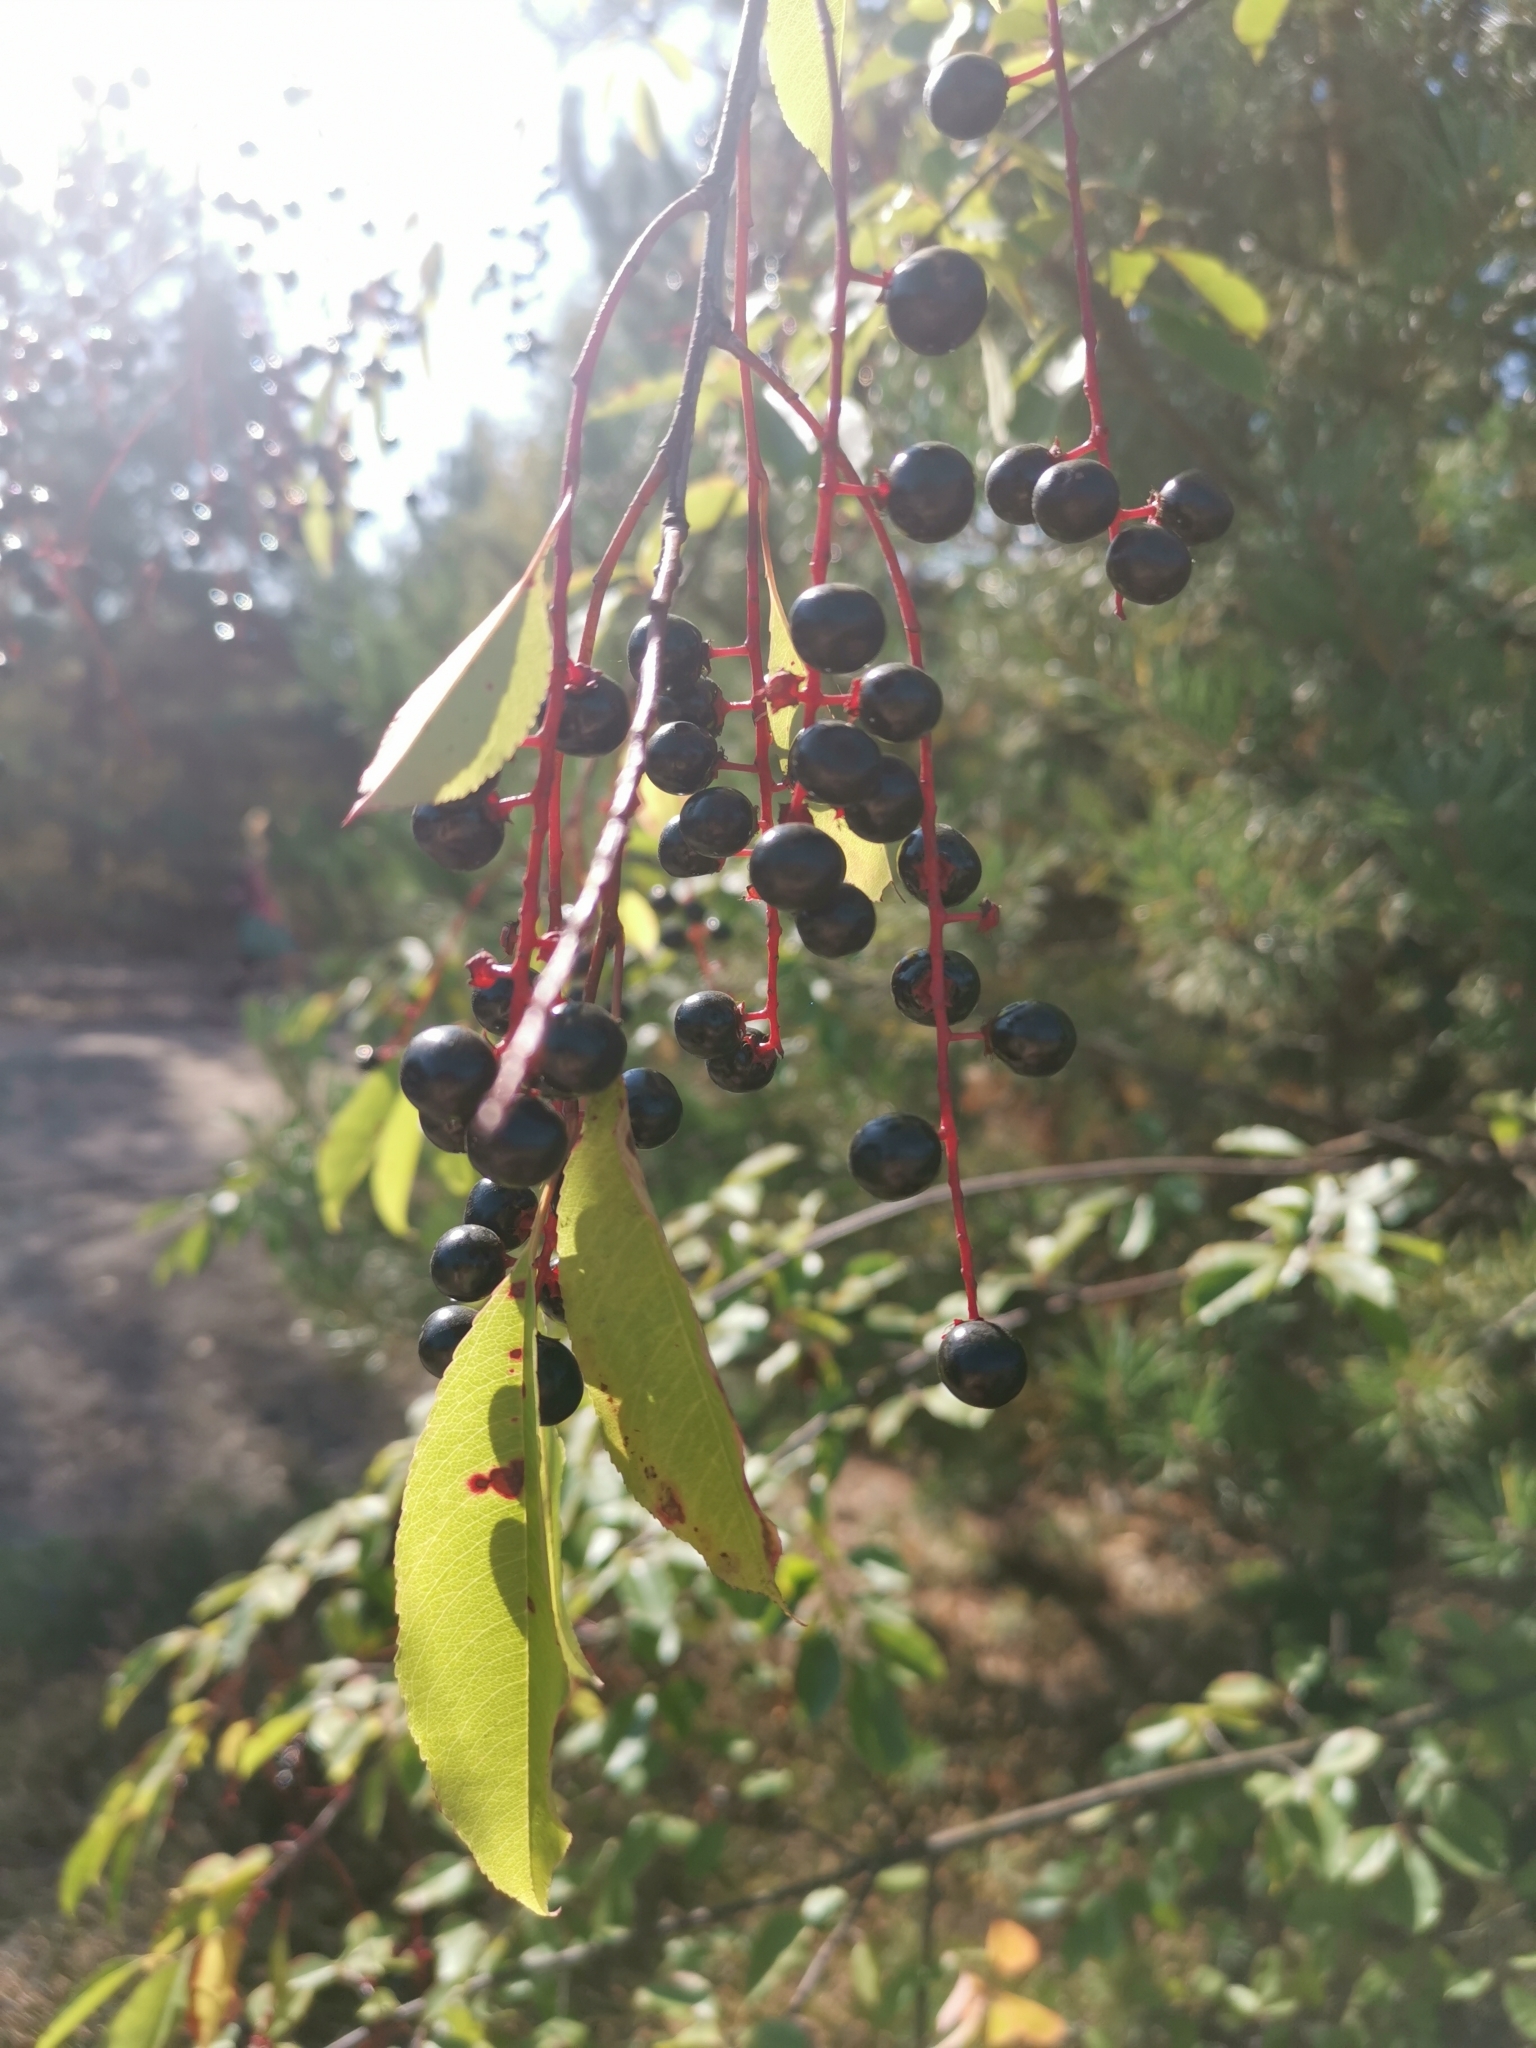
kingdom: Plantae
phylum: Tracheophyta
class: Magnoliopsida
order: Rosales
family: Rosaceae
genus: Prunus
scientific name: Prunus serotina
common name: Black cherry
